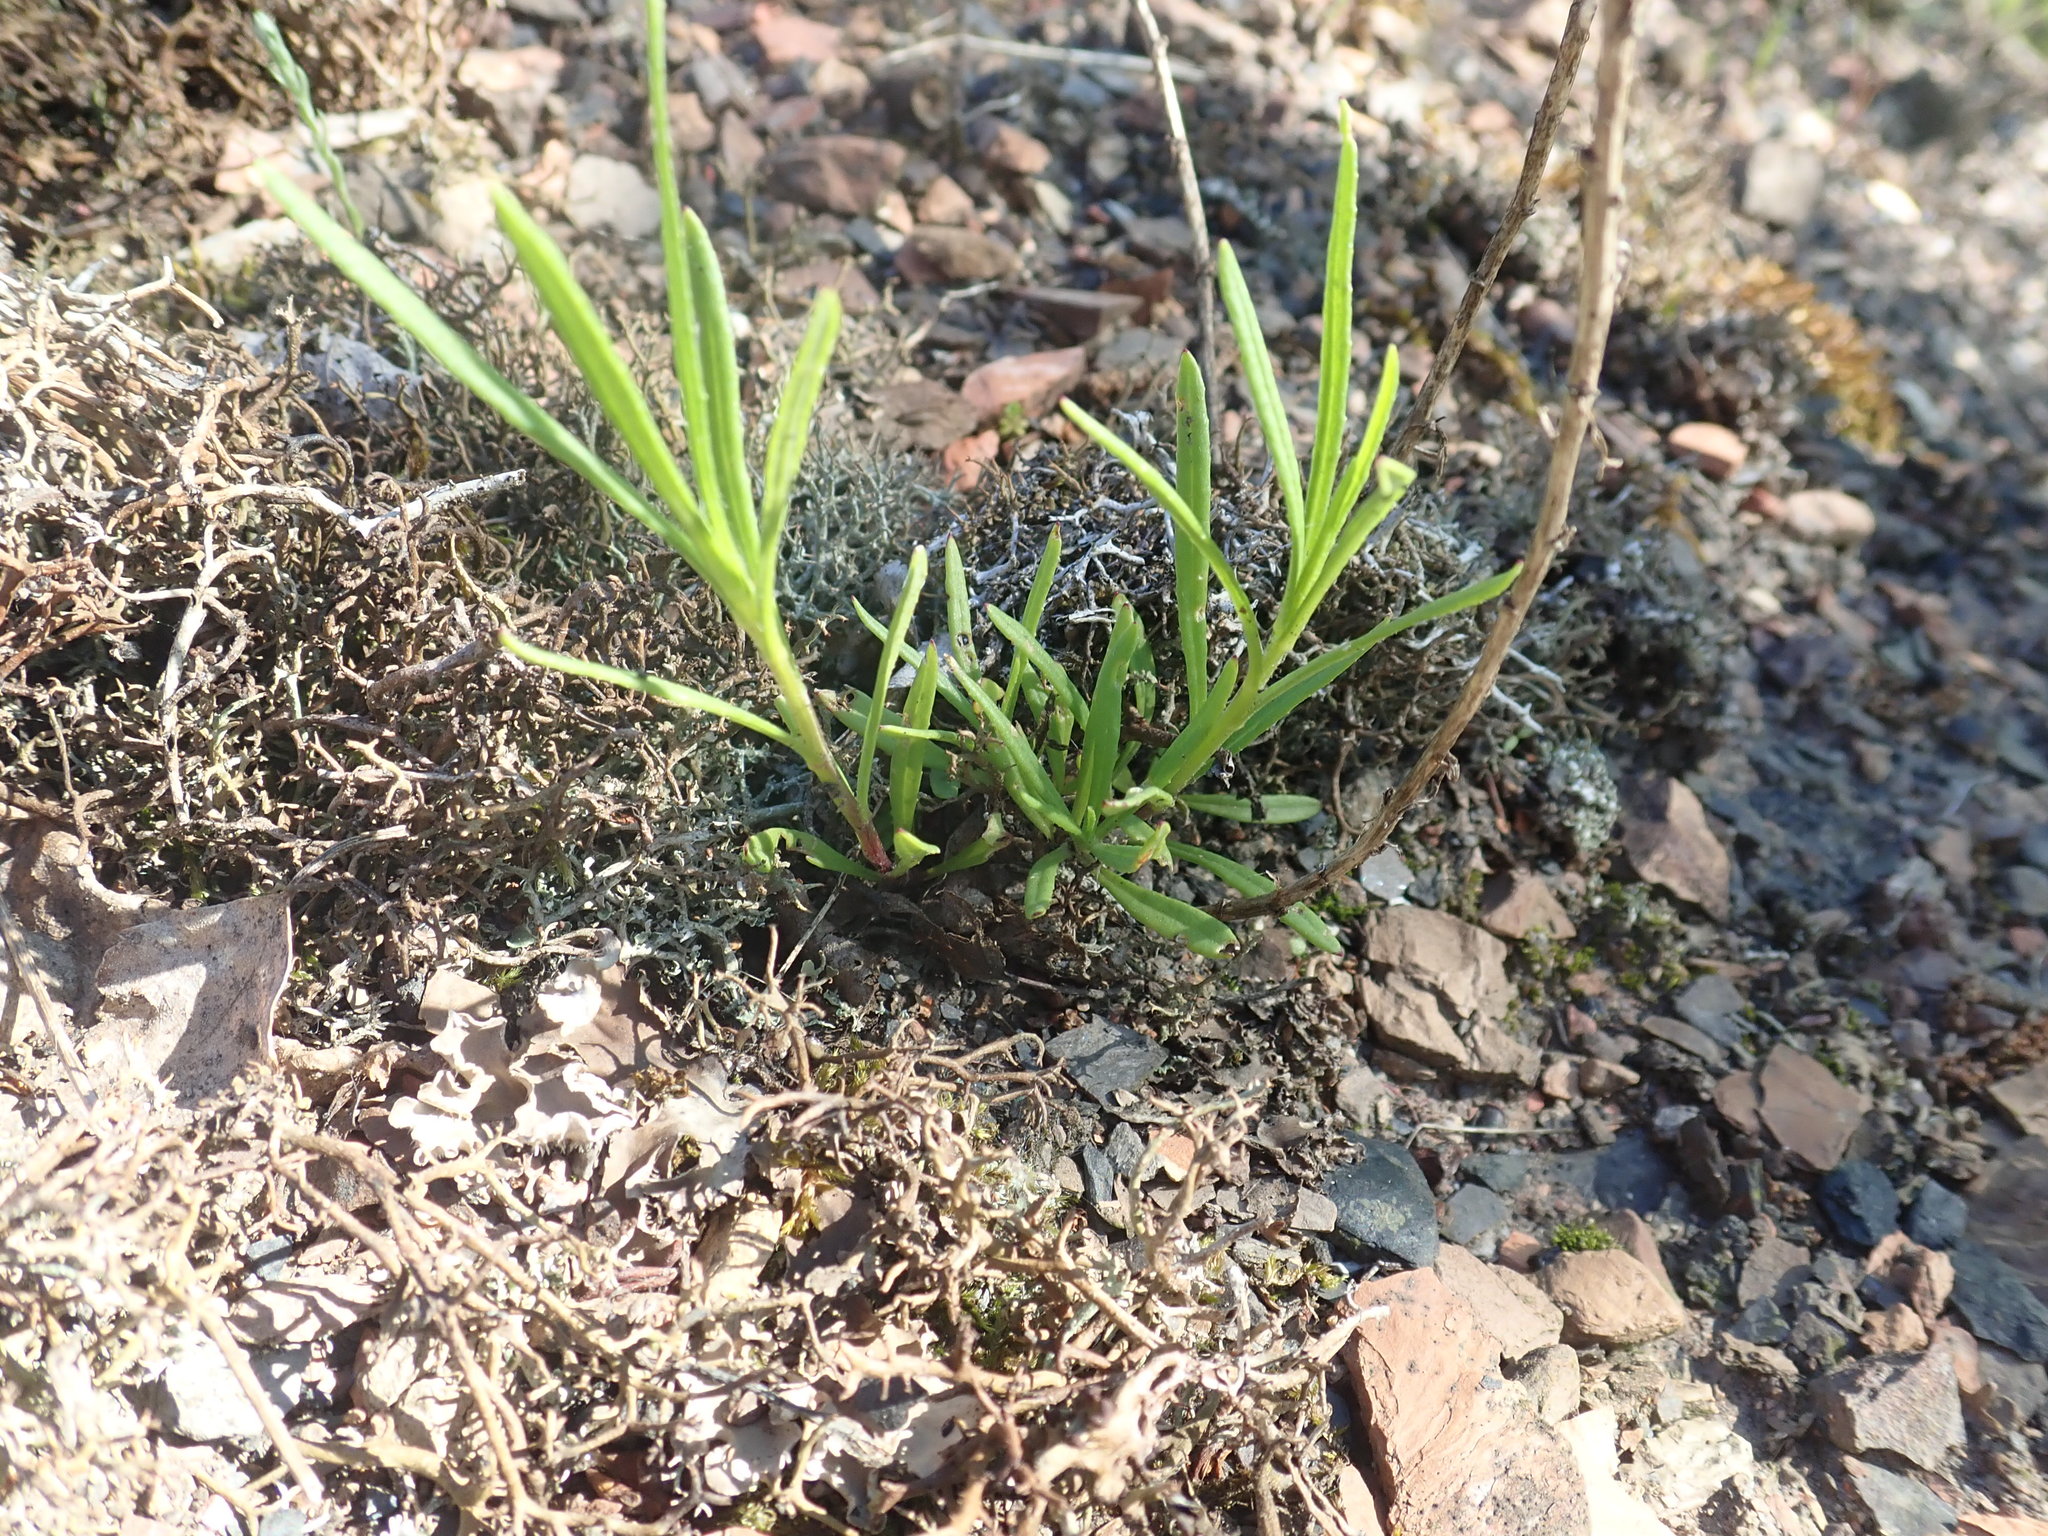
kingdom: Plantae
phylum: Tracheophyta
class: Magnoliopsida
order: Asterales
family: Asteraceae
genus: Senecio
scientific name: Senecio inaequidens
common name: Narrow-leaved ragwort
